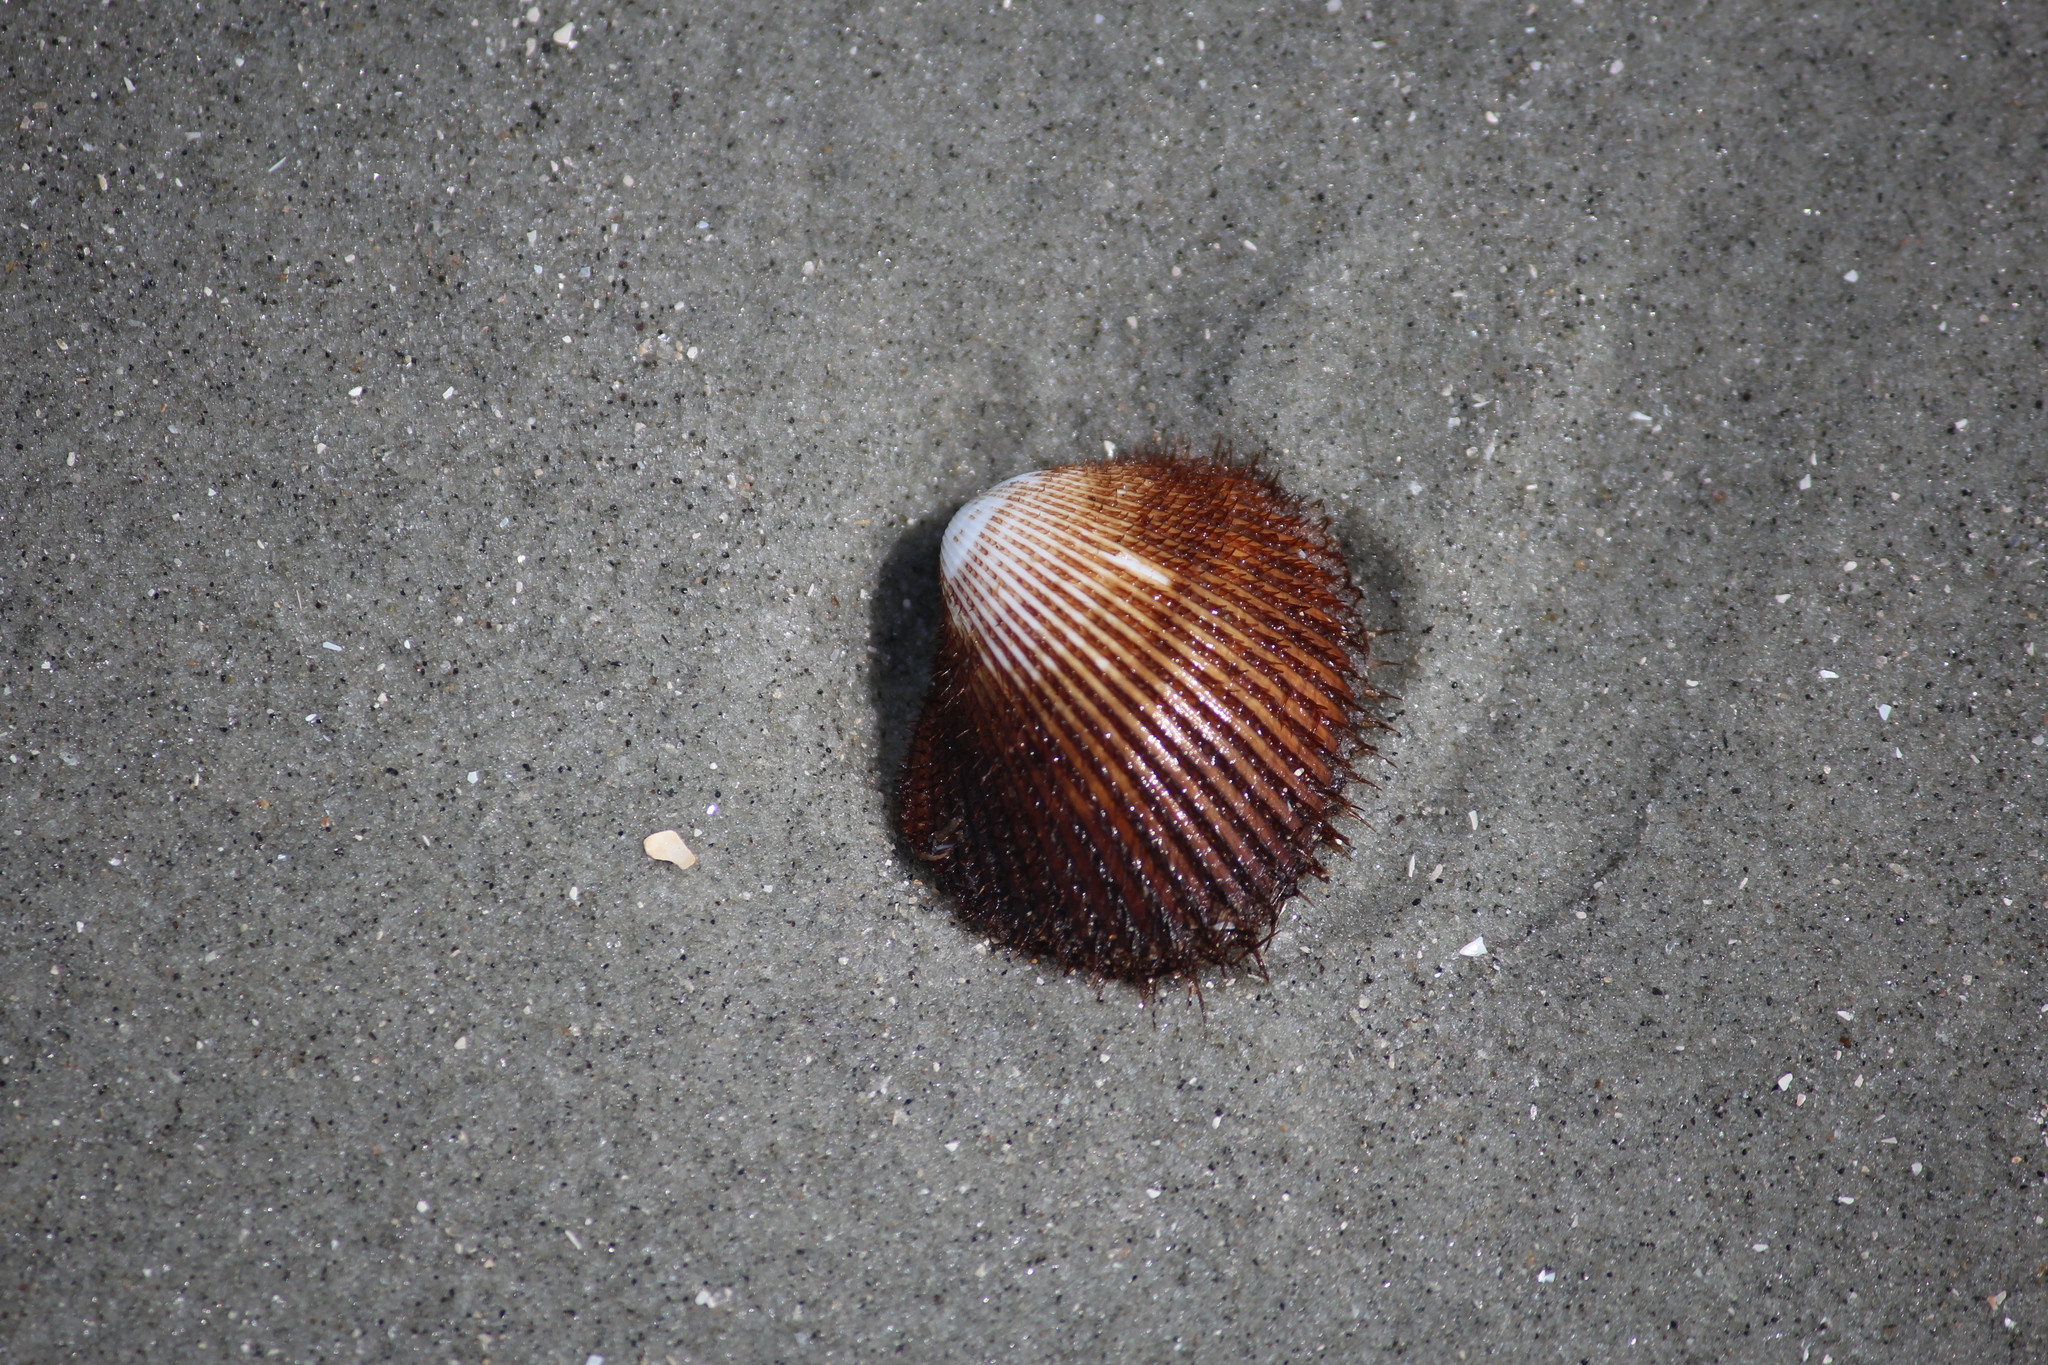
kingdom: Animalia
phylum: Mollusca
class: Bivalvia
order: Arcida
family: Arcidae
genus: Lunarca
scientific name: Lunarca ovalis
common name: Blood ark
